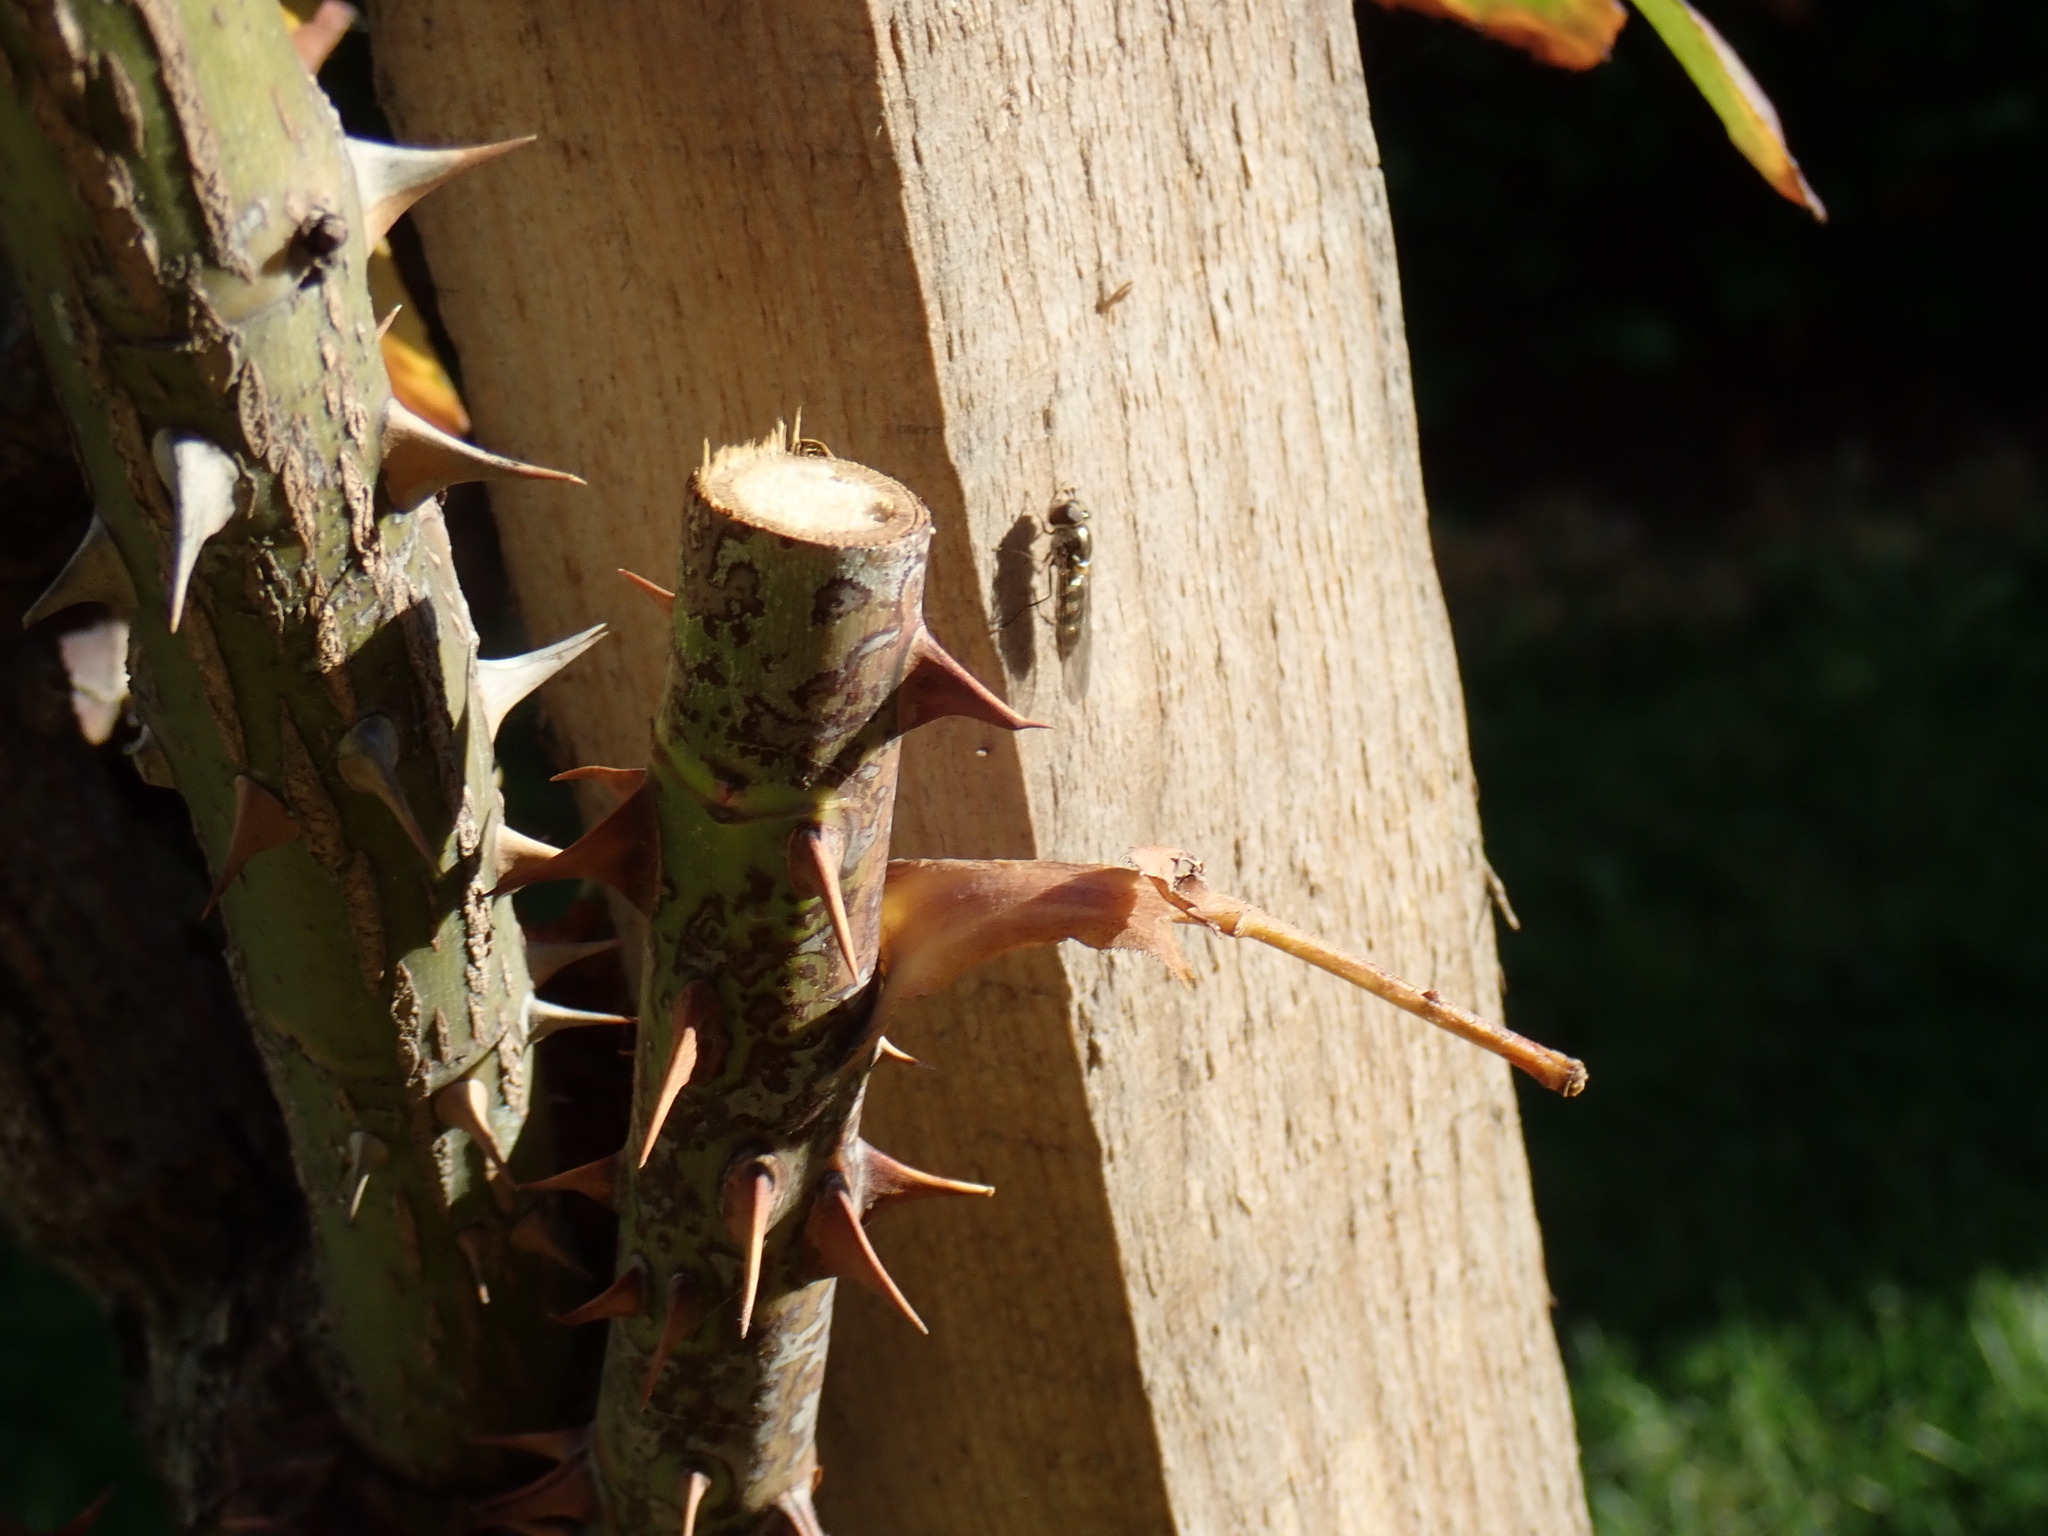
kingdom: Animalia
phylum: Arthropoda
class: Insecta
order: Diptera
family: Syrphidae
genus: Meliscaeva
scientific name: Meliscaeva auricollis
